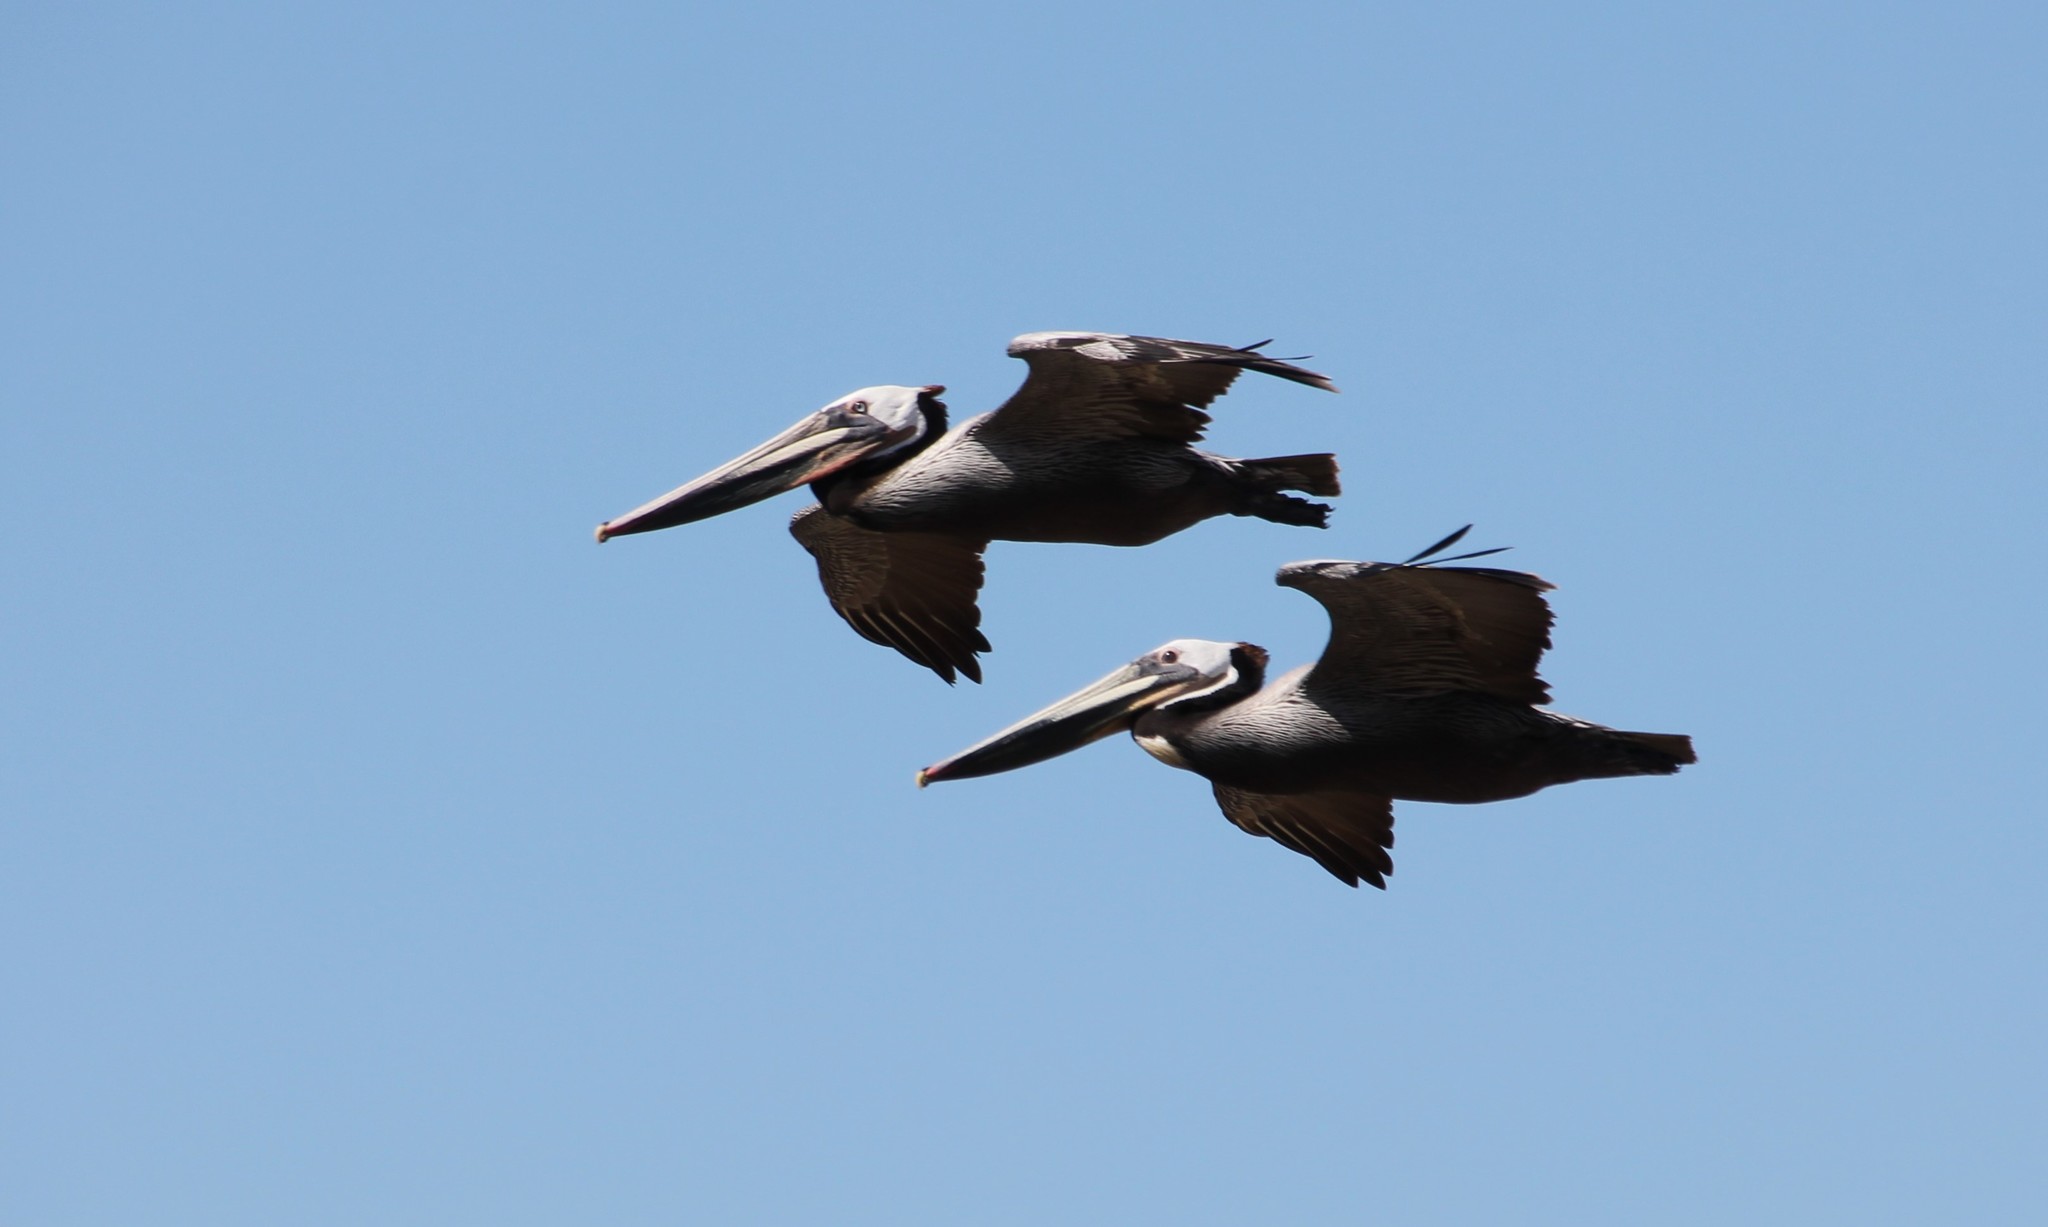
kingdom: Animalia
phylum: Chordata
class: Aves
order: Pelecaniformes
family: Pelecanidae
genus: Pelecanus
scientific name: Pelecanus occidentalis
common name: Brown pelican
